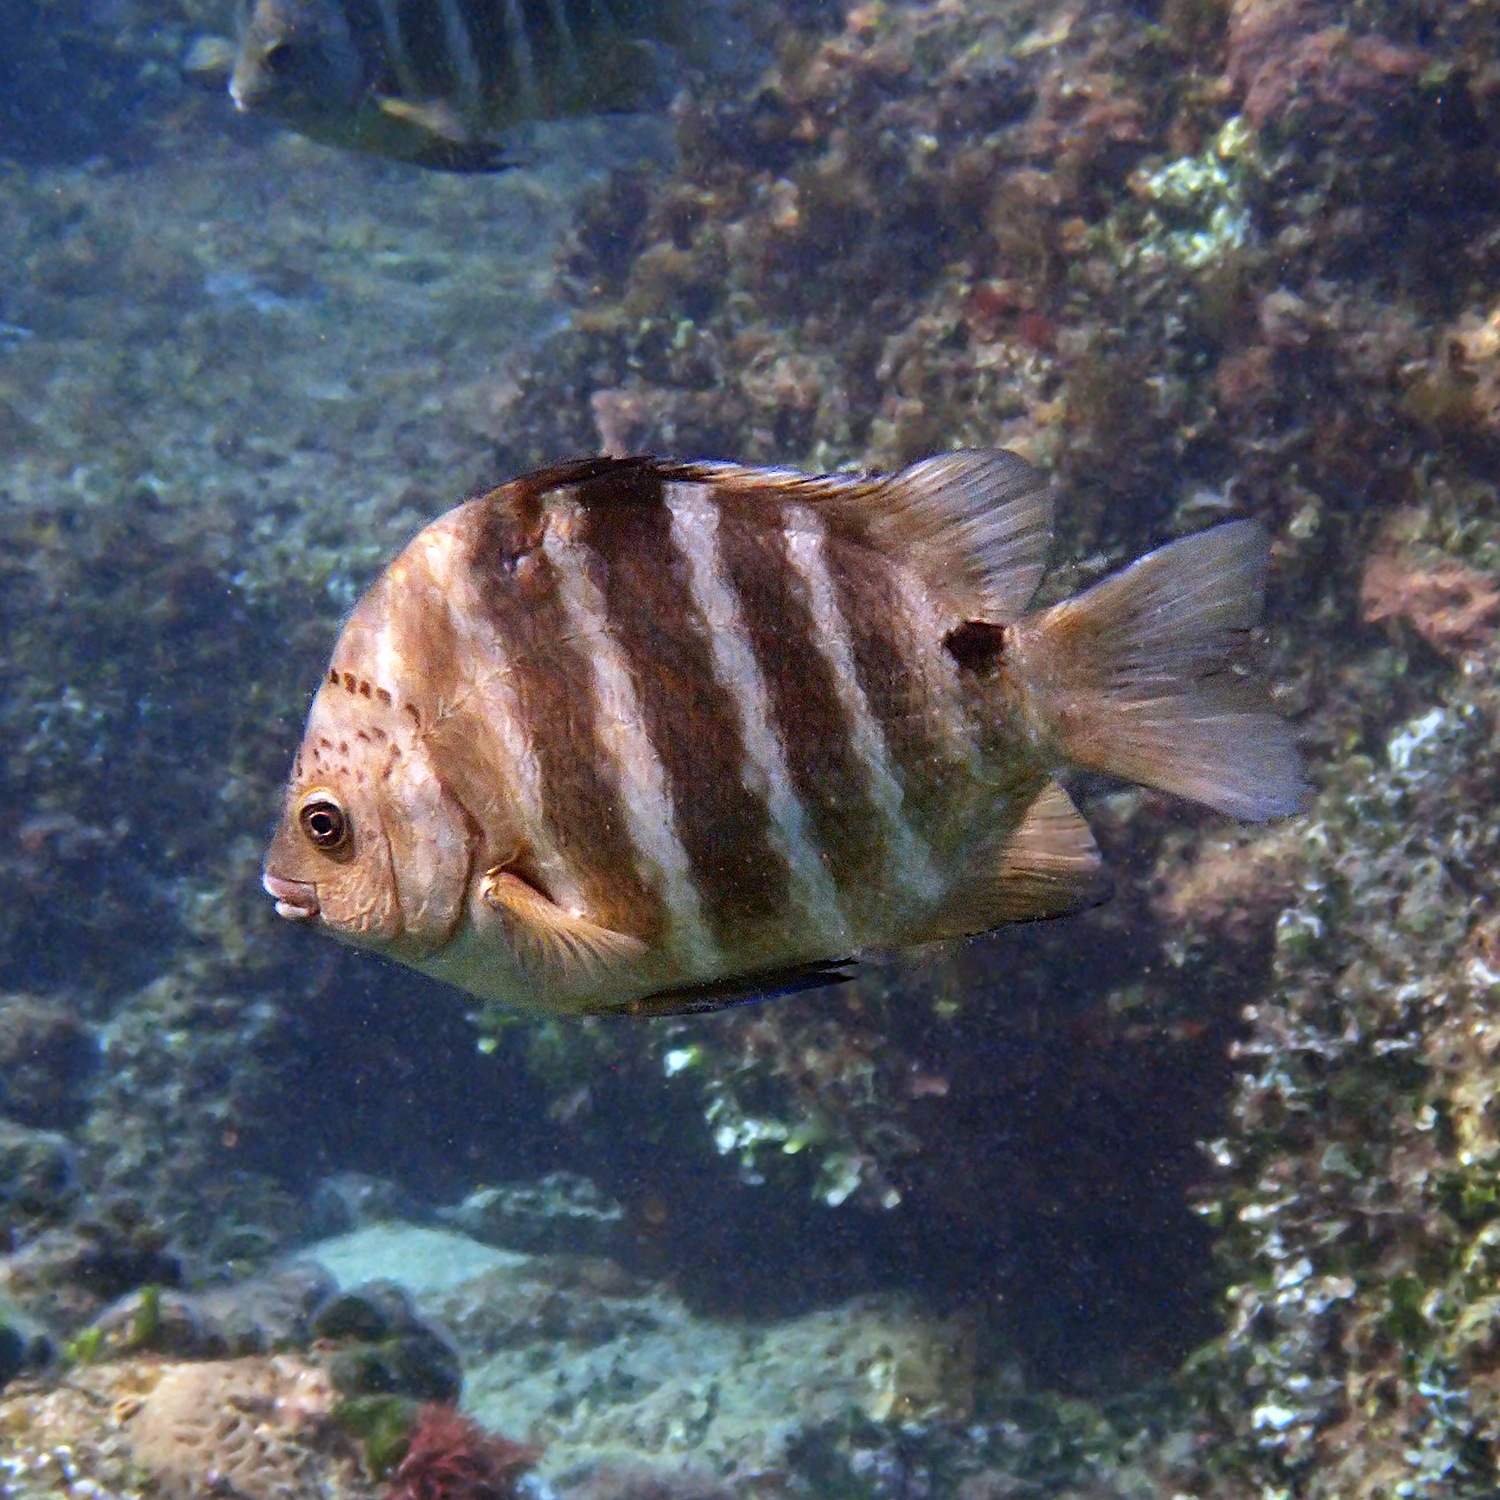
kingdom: Animalia
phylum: Chordata
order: Perciformes
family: Pomacentridae
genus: Abudefduf
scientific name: Abudefduf sordidus
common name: Blackspot sergeant
